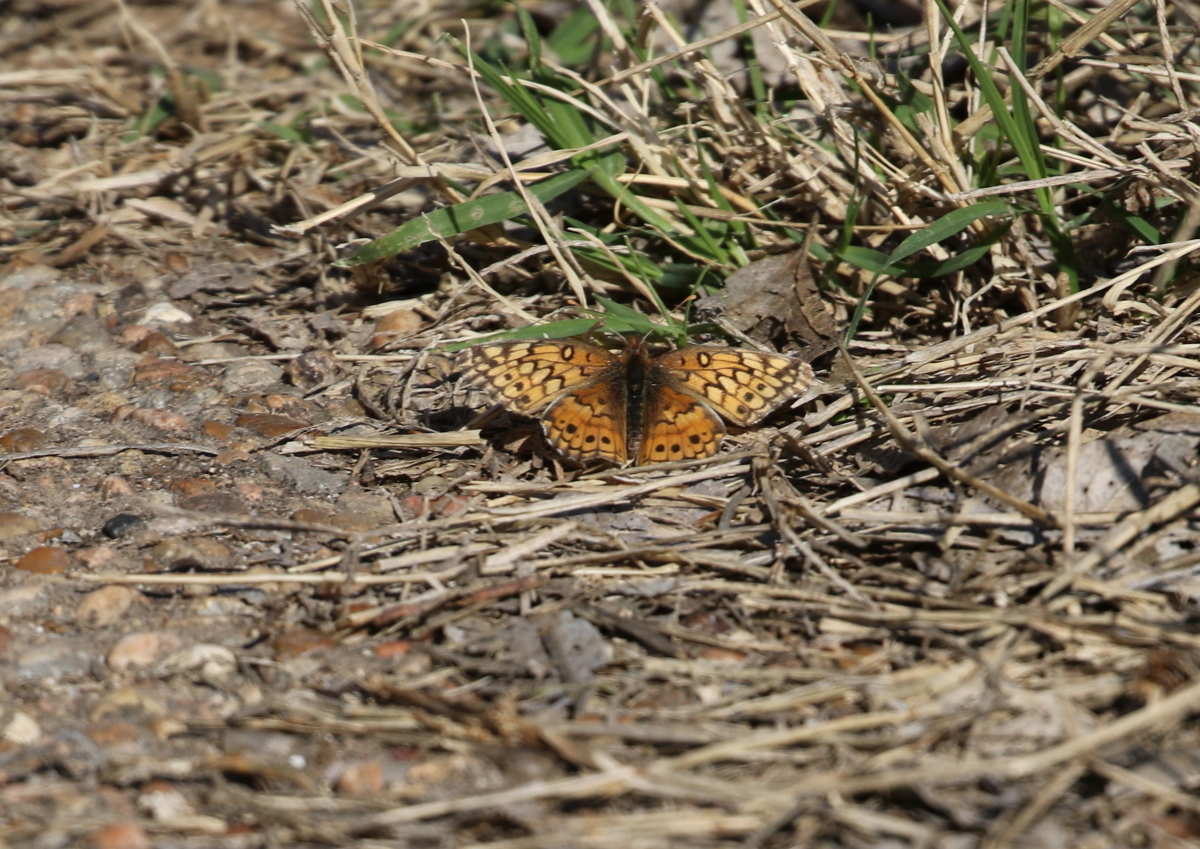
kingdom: Animalia
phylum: Arthropoda
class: Insecta
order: Lepidoptera
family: Nymphalidae
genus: Euptoieta
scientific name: Euptoieta claudia
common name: Variegated fritillary
